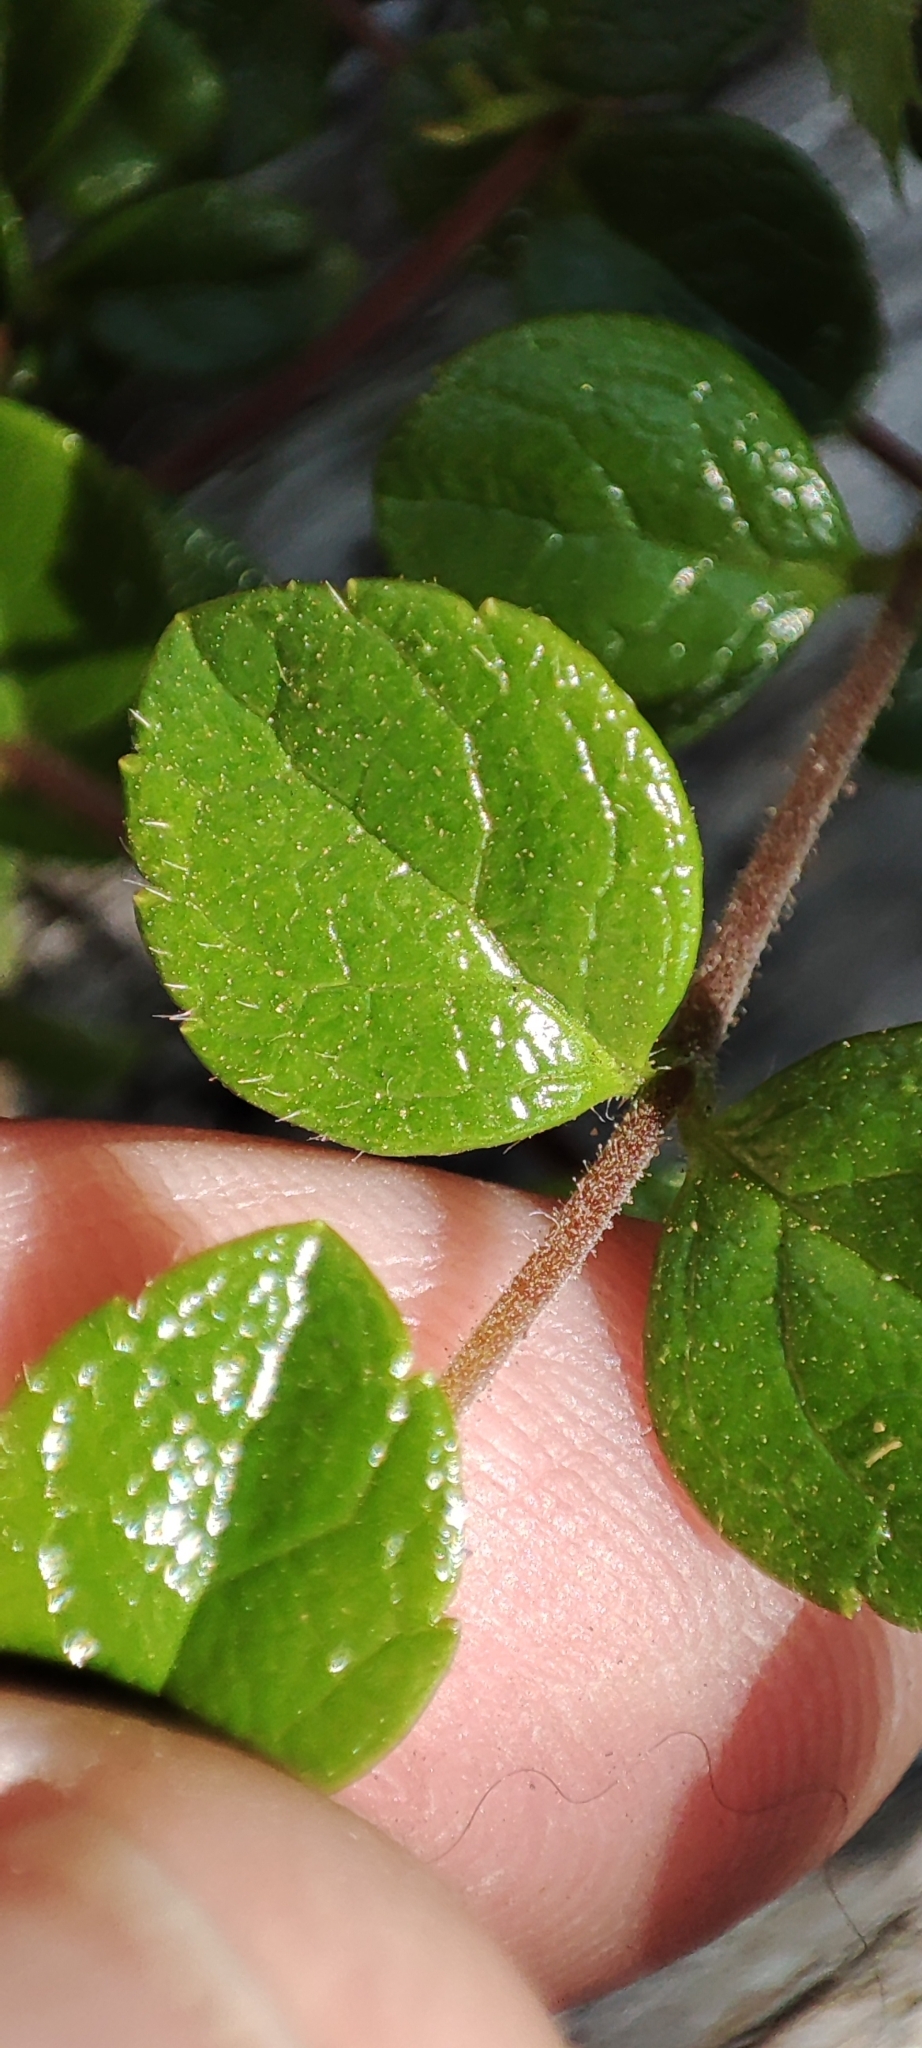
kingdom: Plantae
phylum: Tracheophyta
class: Magnoliopsida
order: Dipsacales
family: Caprifoliaceae
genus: Linnaea
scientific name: Linnaea borealis
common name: Twinflower
